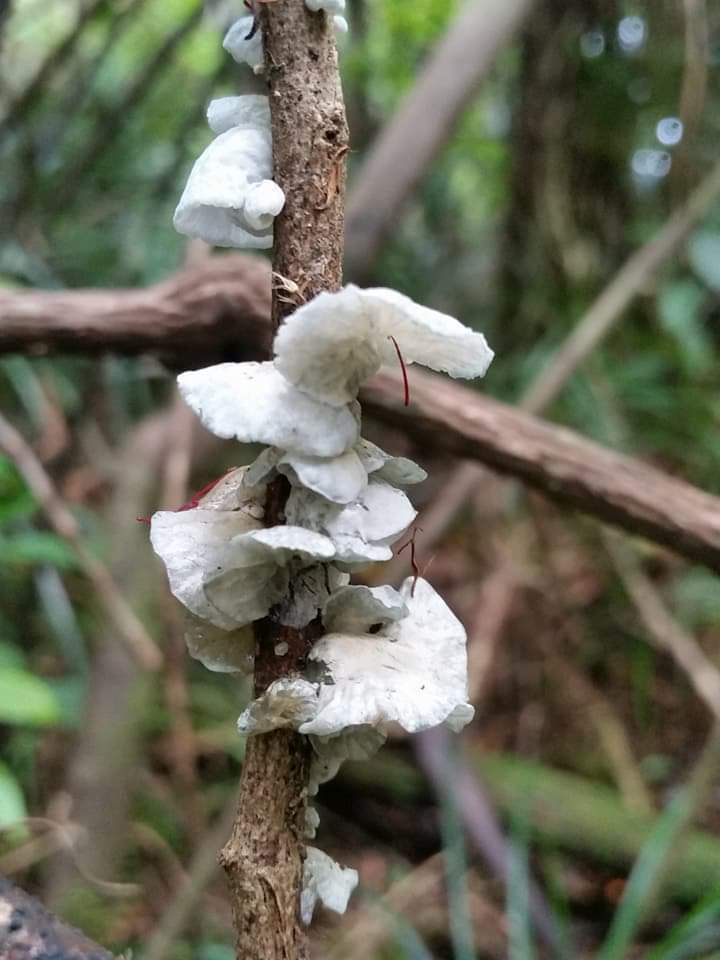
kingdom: Fungi
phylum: Basidiomycota
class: Agaricomycetes
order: Agaricales
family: Marasmiaceae
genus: Campanella
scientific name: Campanella tristis
